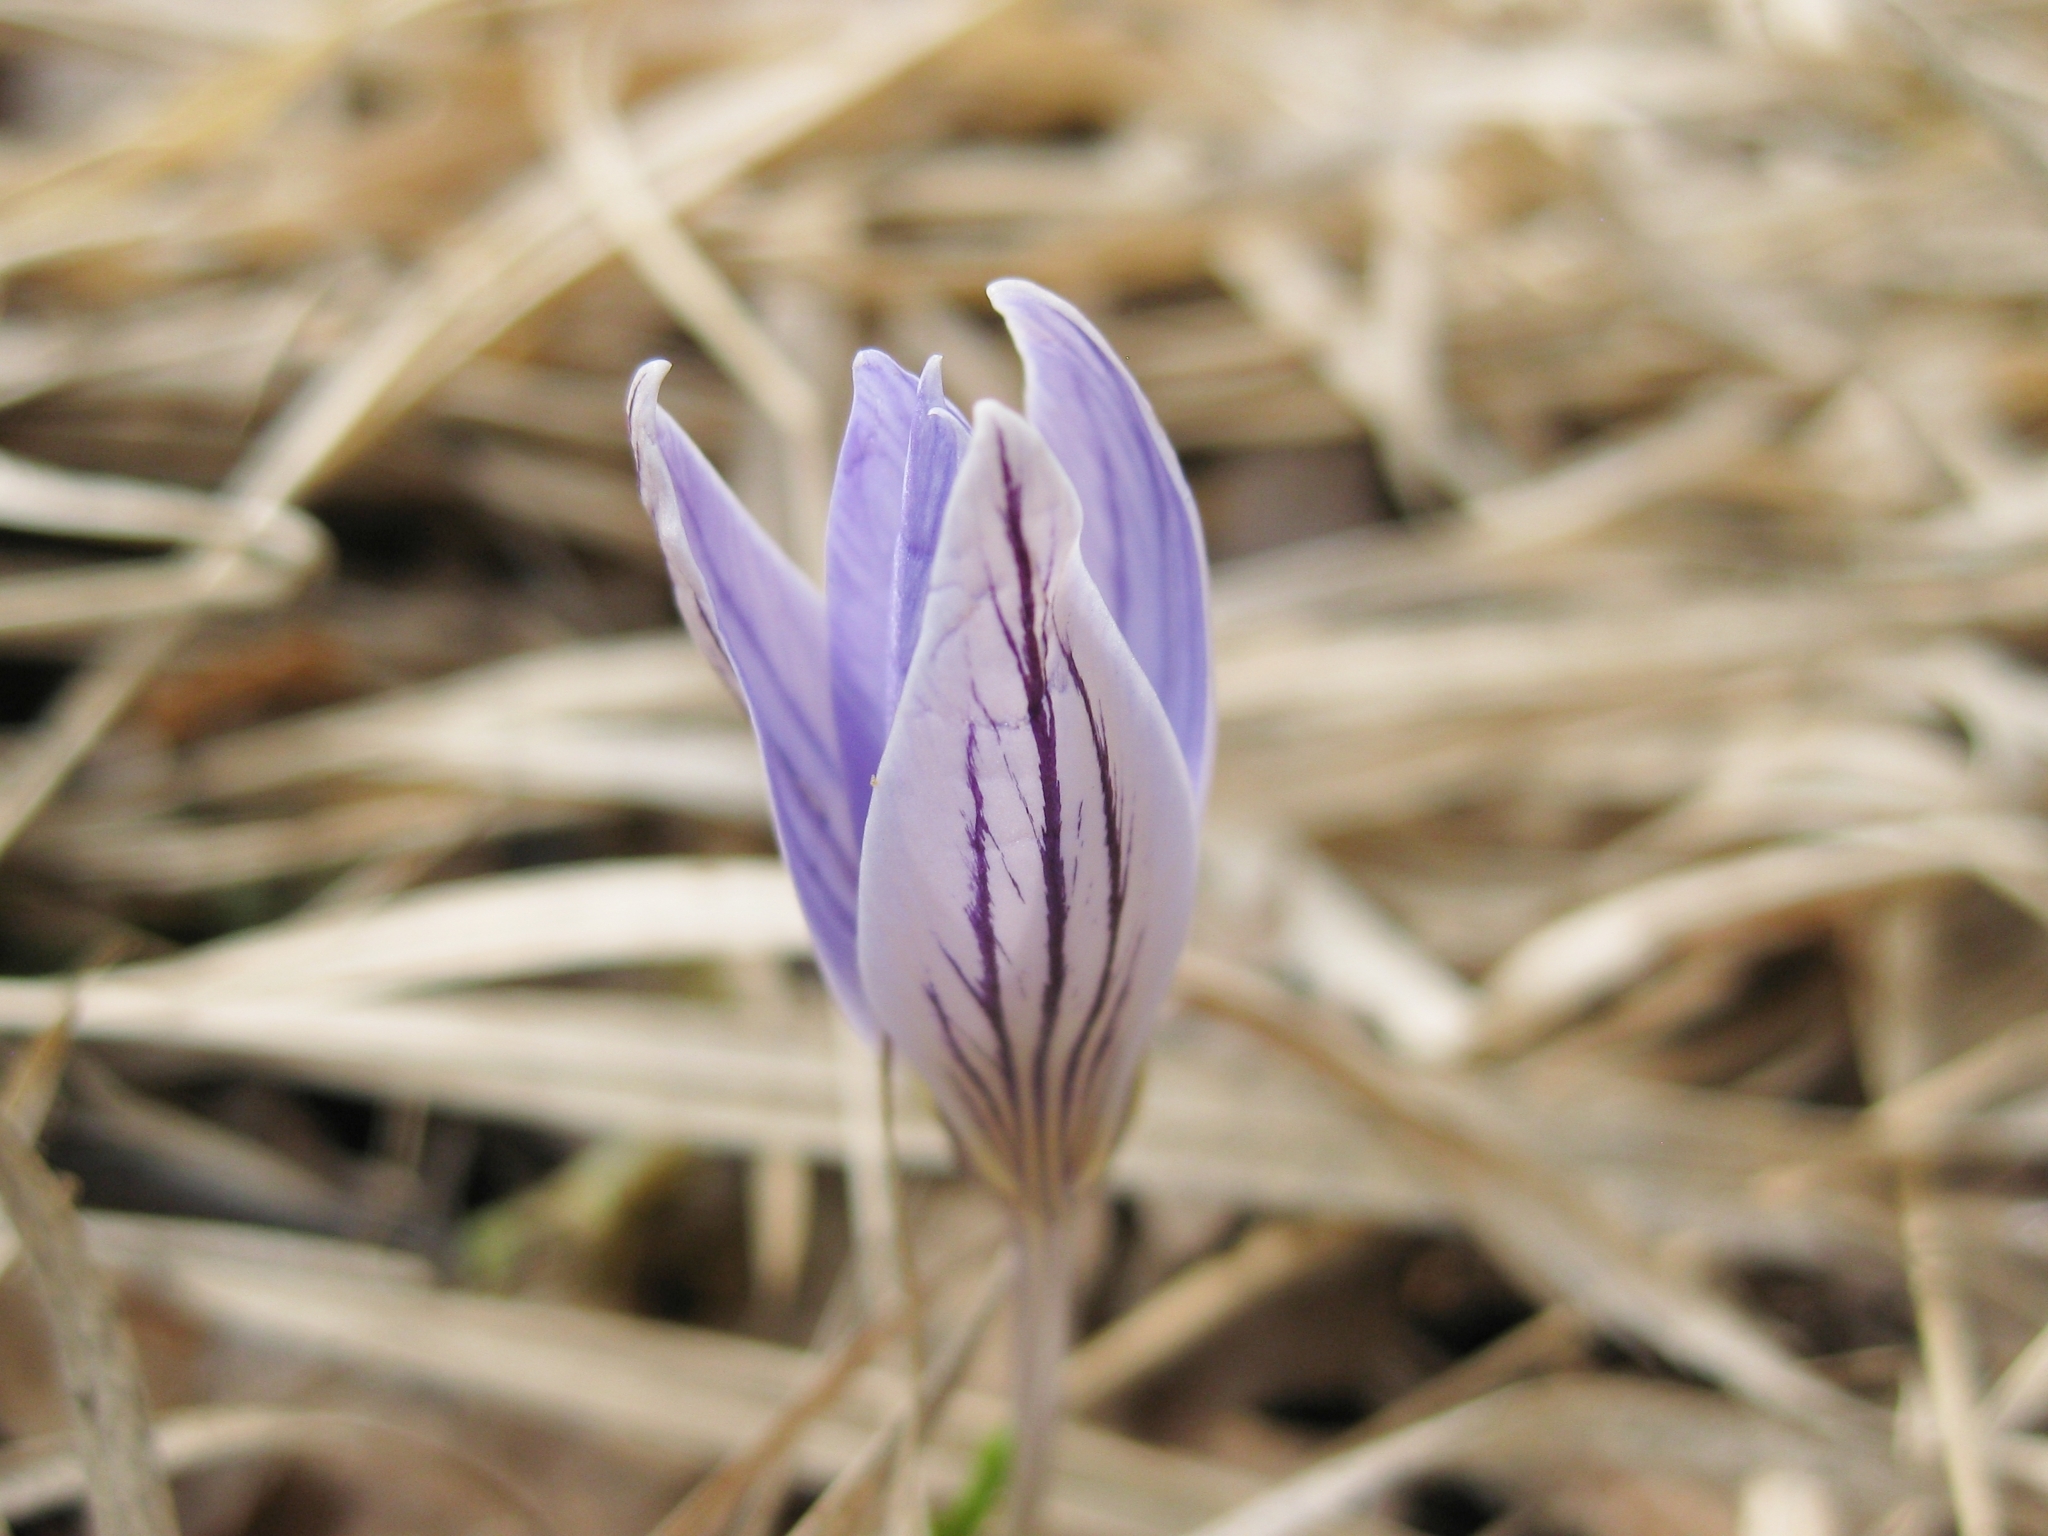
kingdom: Plantae
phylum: Tracheophyta
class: Liliopsida
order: Asparagales
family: Iridaceae
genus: Crocus
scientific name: Crocus reticulatus
